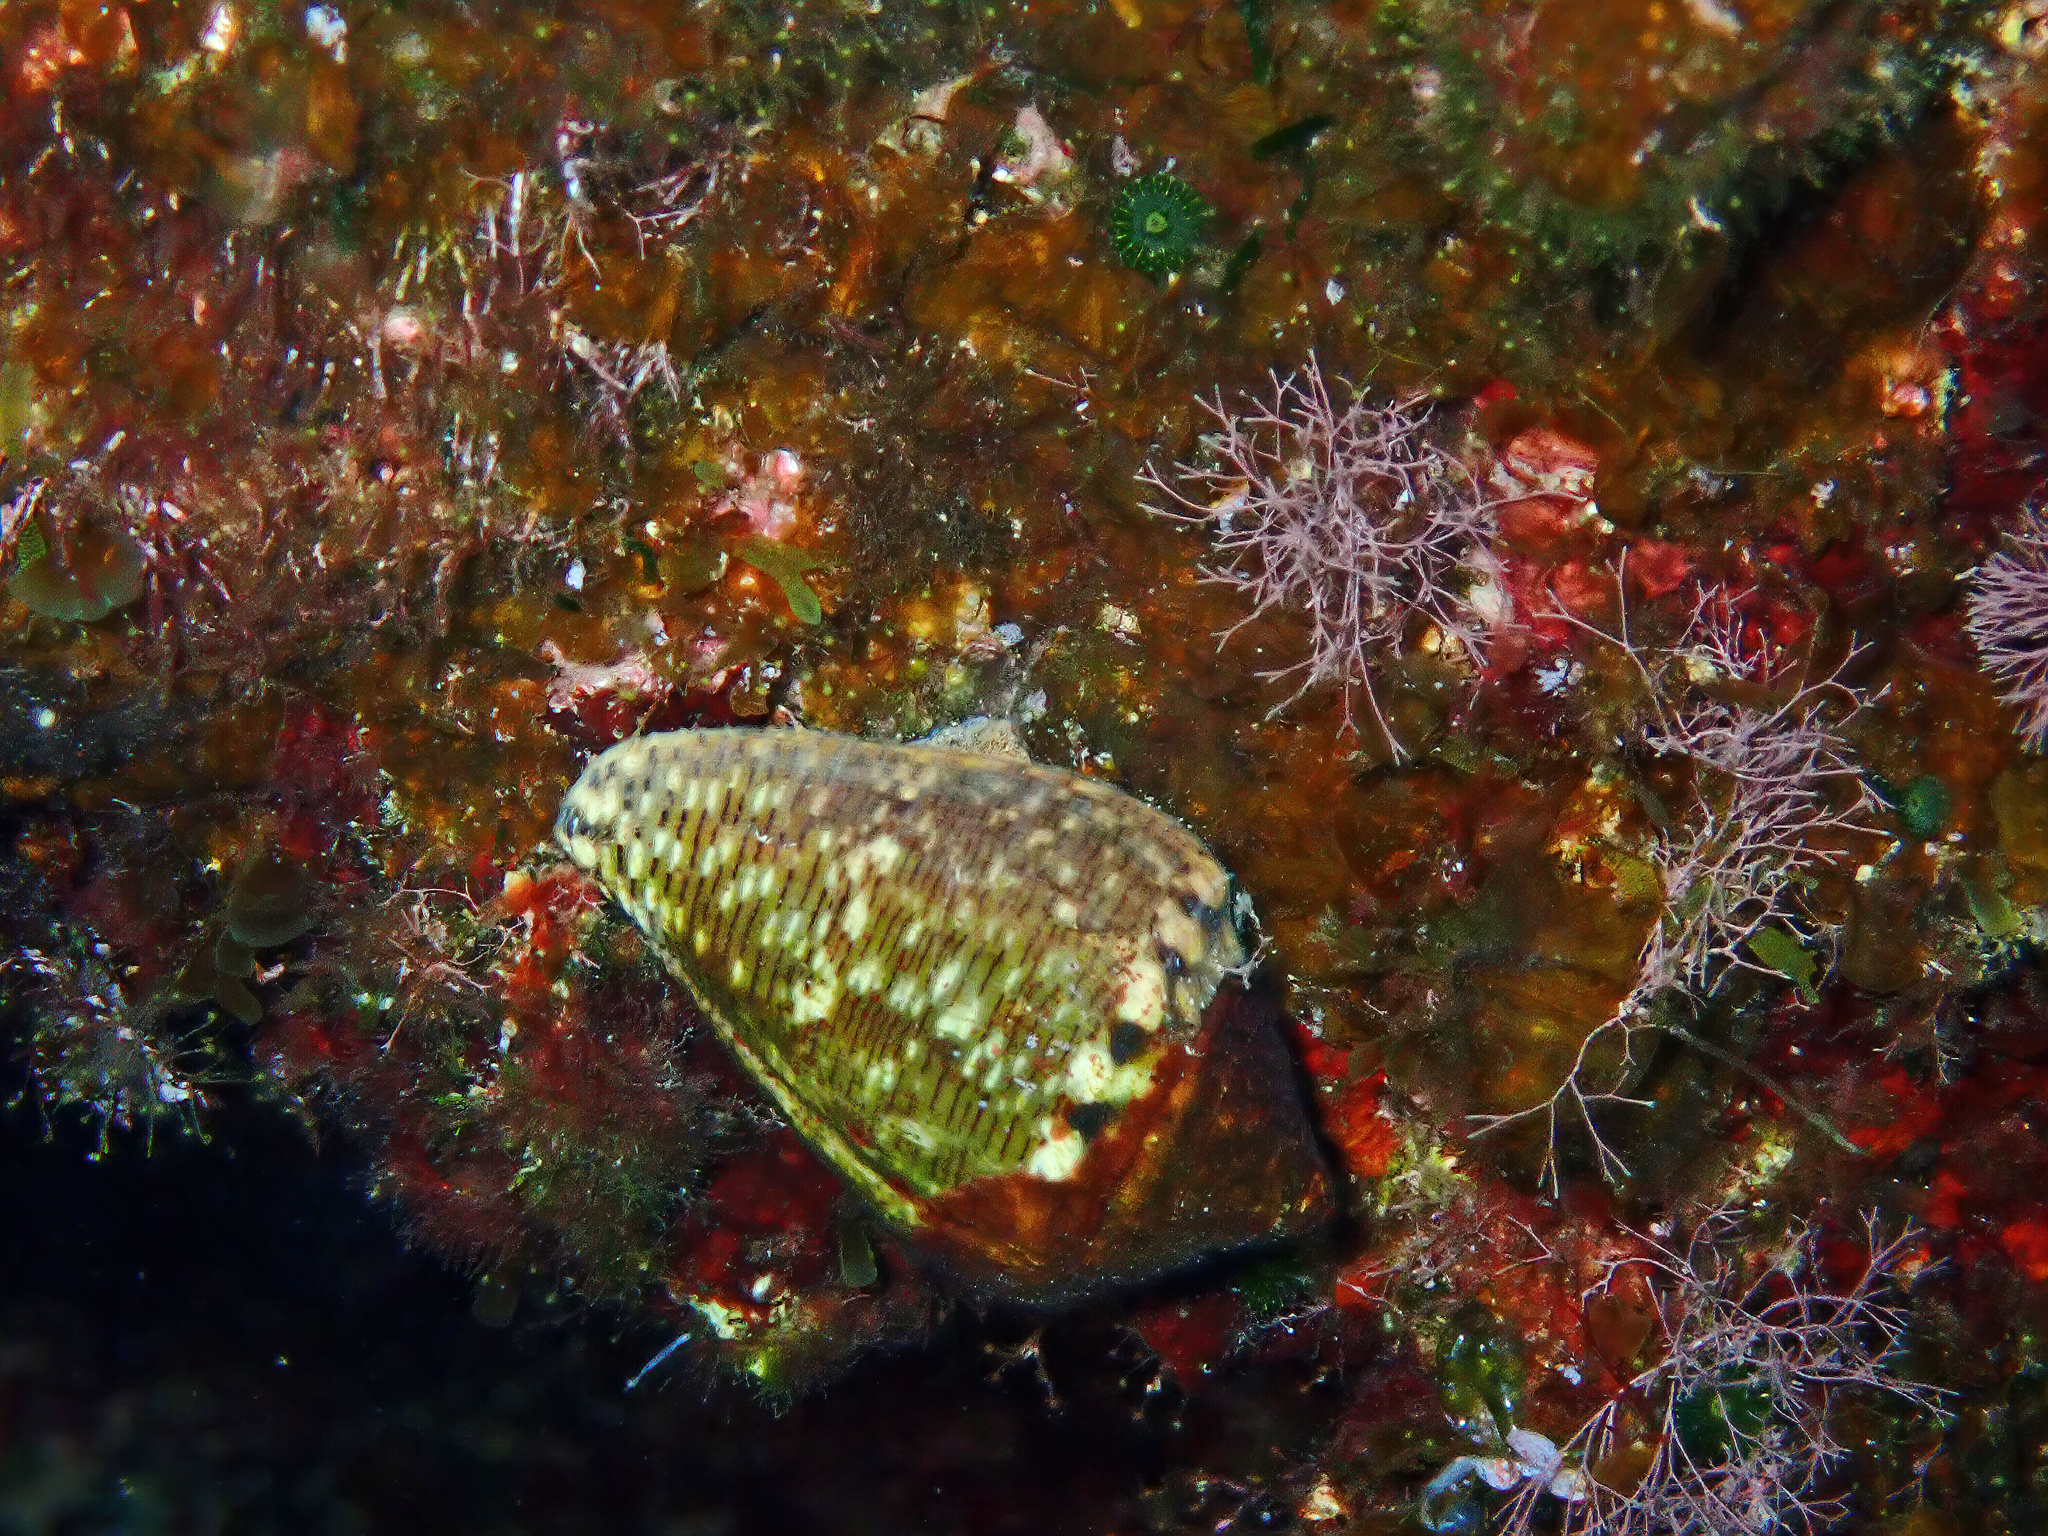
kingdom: Animalia
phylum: Mollusca
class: Gastropoda
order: Neogastropoda
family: Conidae
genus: Conus
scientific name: Conus ventricosus
